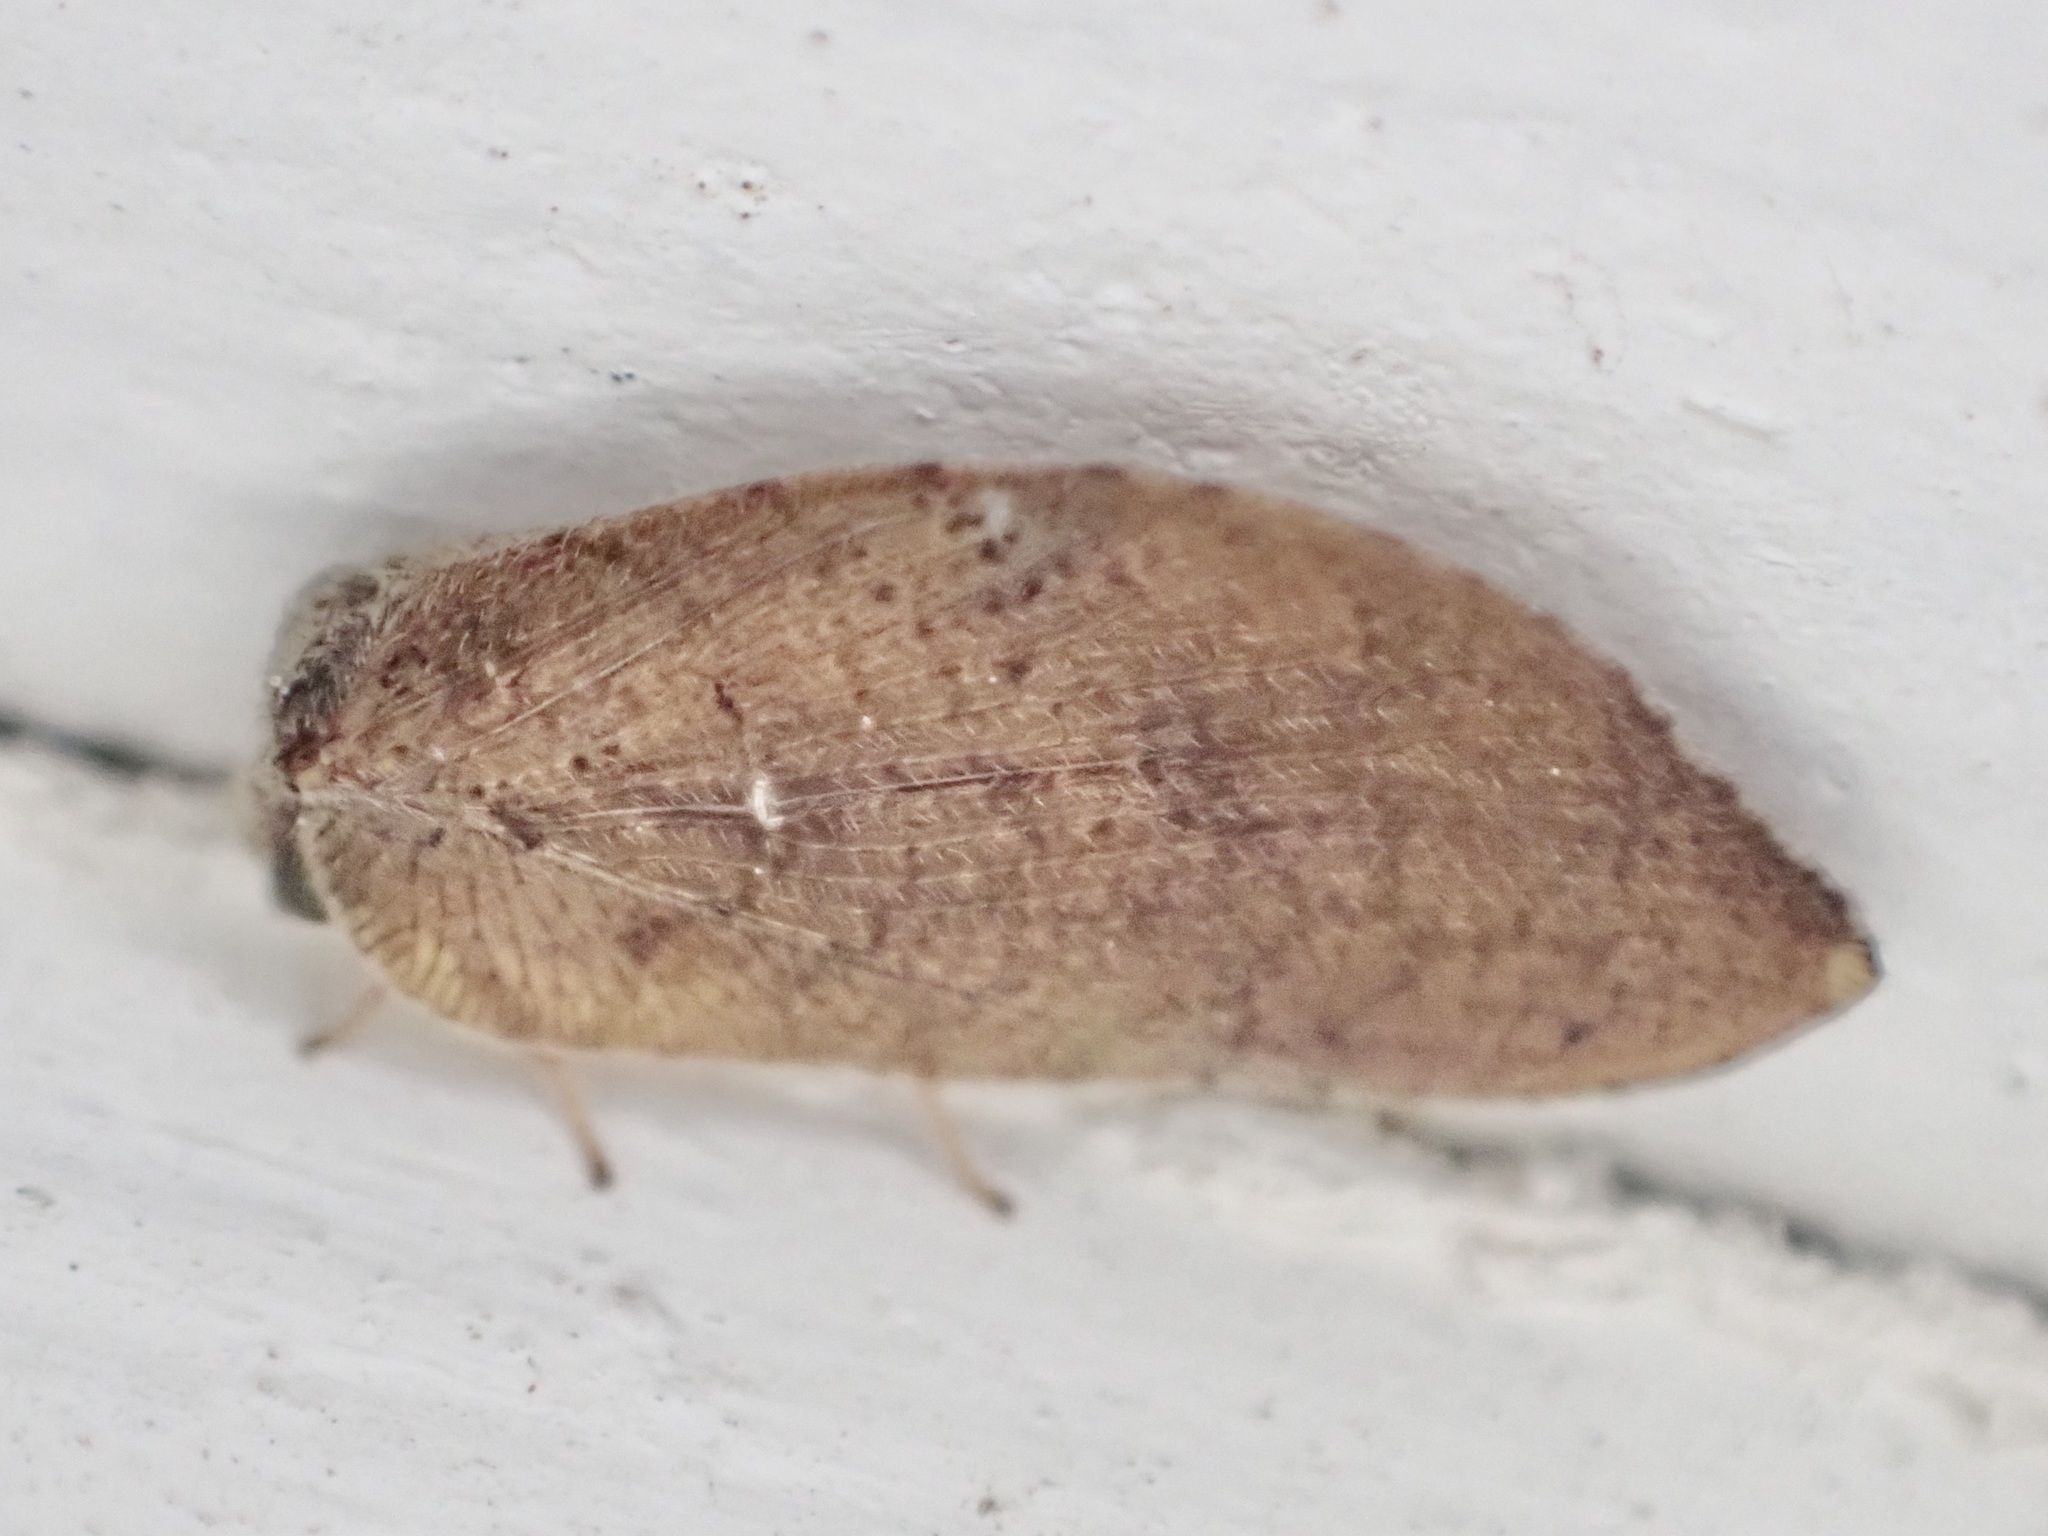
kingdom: Animalia
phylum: Arthropoda
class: Insecta
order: Neuroptera
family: Hemerobiidae
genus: Drepanacra
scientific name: Drepanacra binocula
